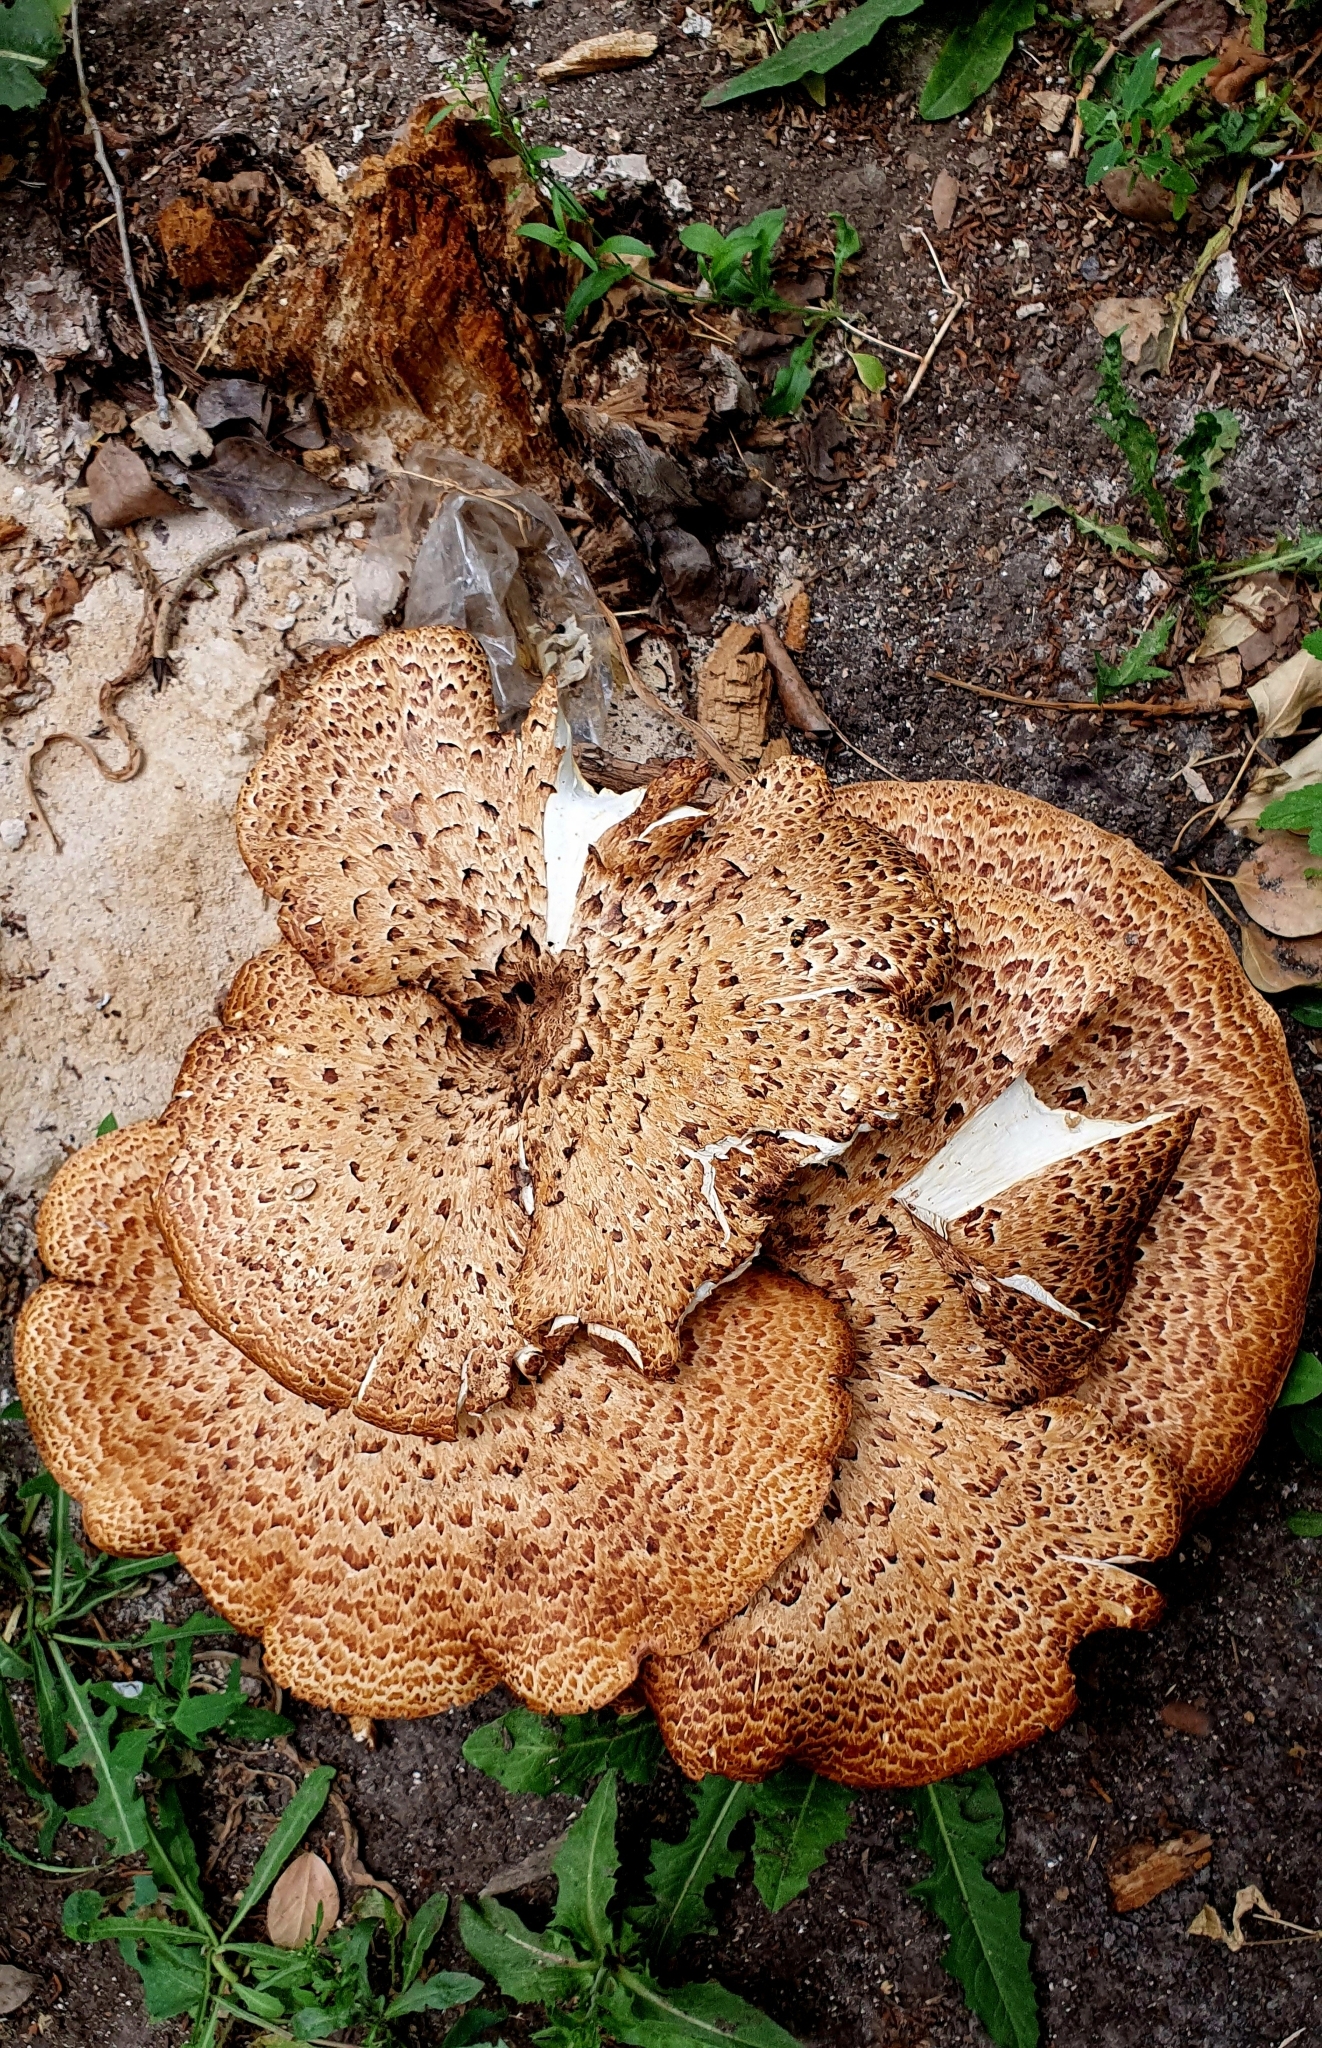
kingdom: Fungi
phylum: Basidiomycota
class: Agaricomycetes
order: Polyporales
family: Polyporaceae
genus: Cerioporus
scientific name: Cerioporus squamosus
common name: Dryad's saddle
